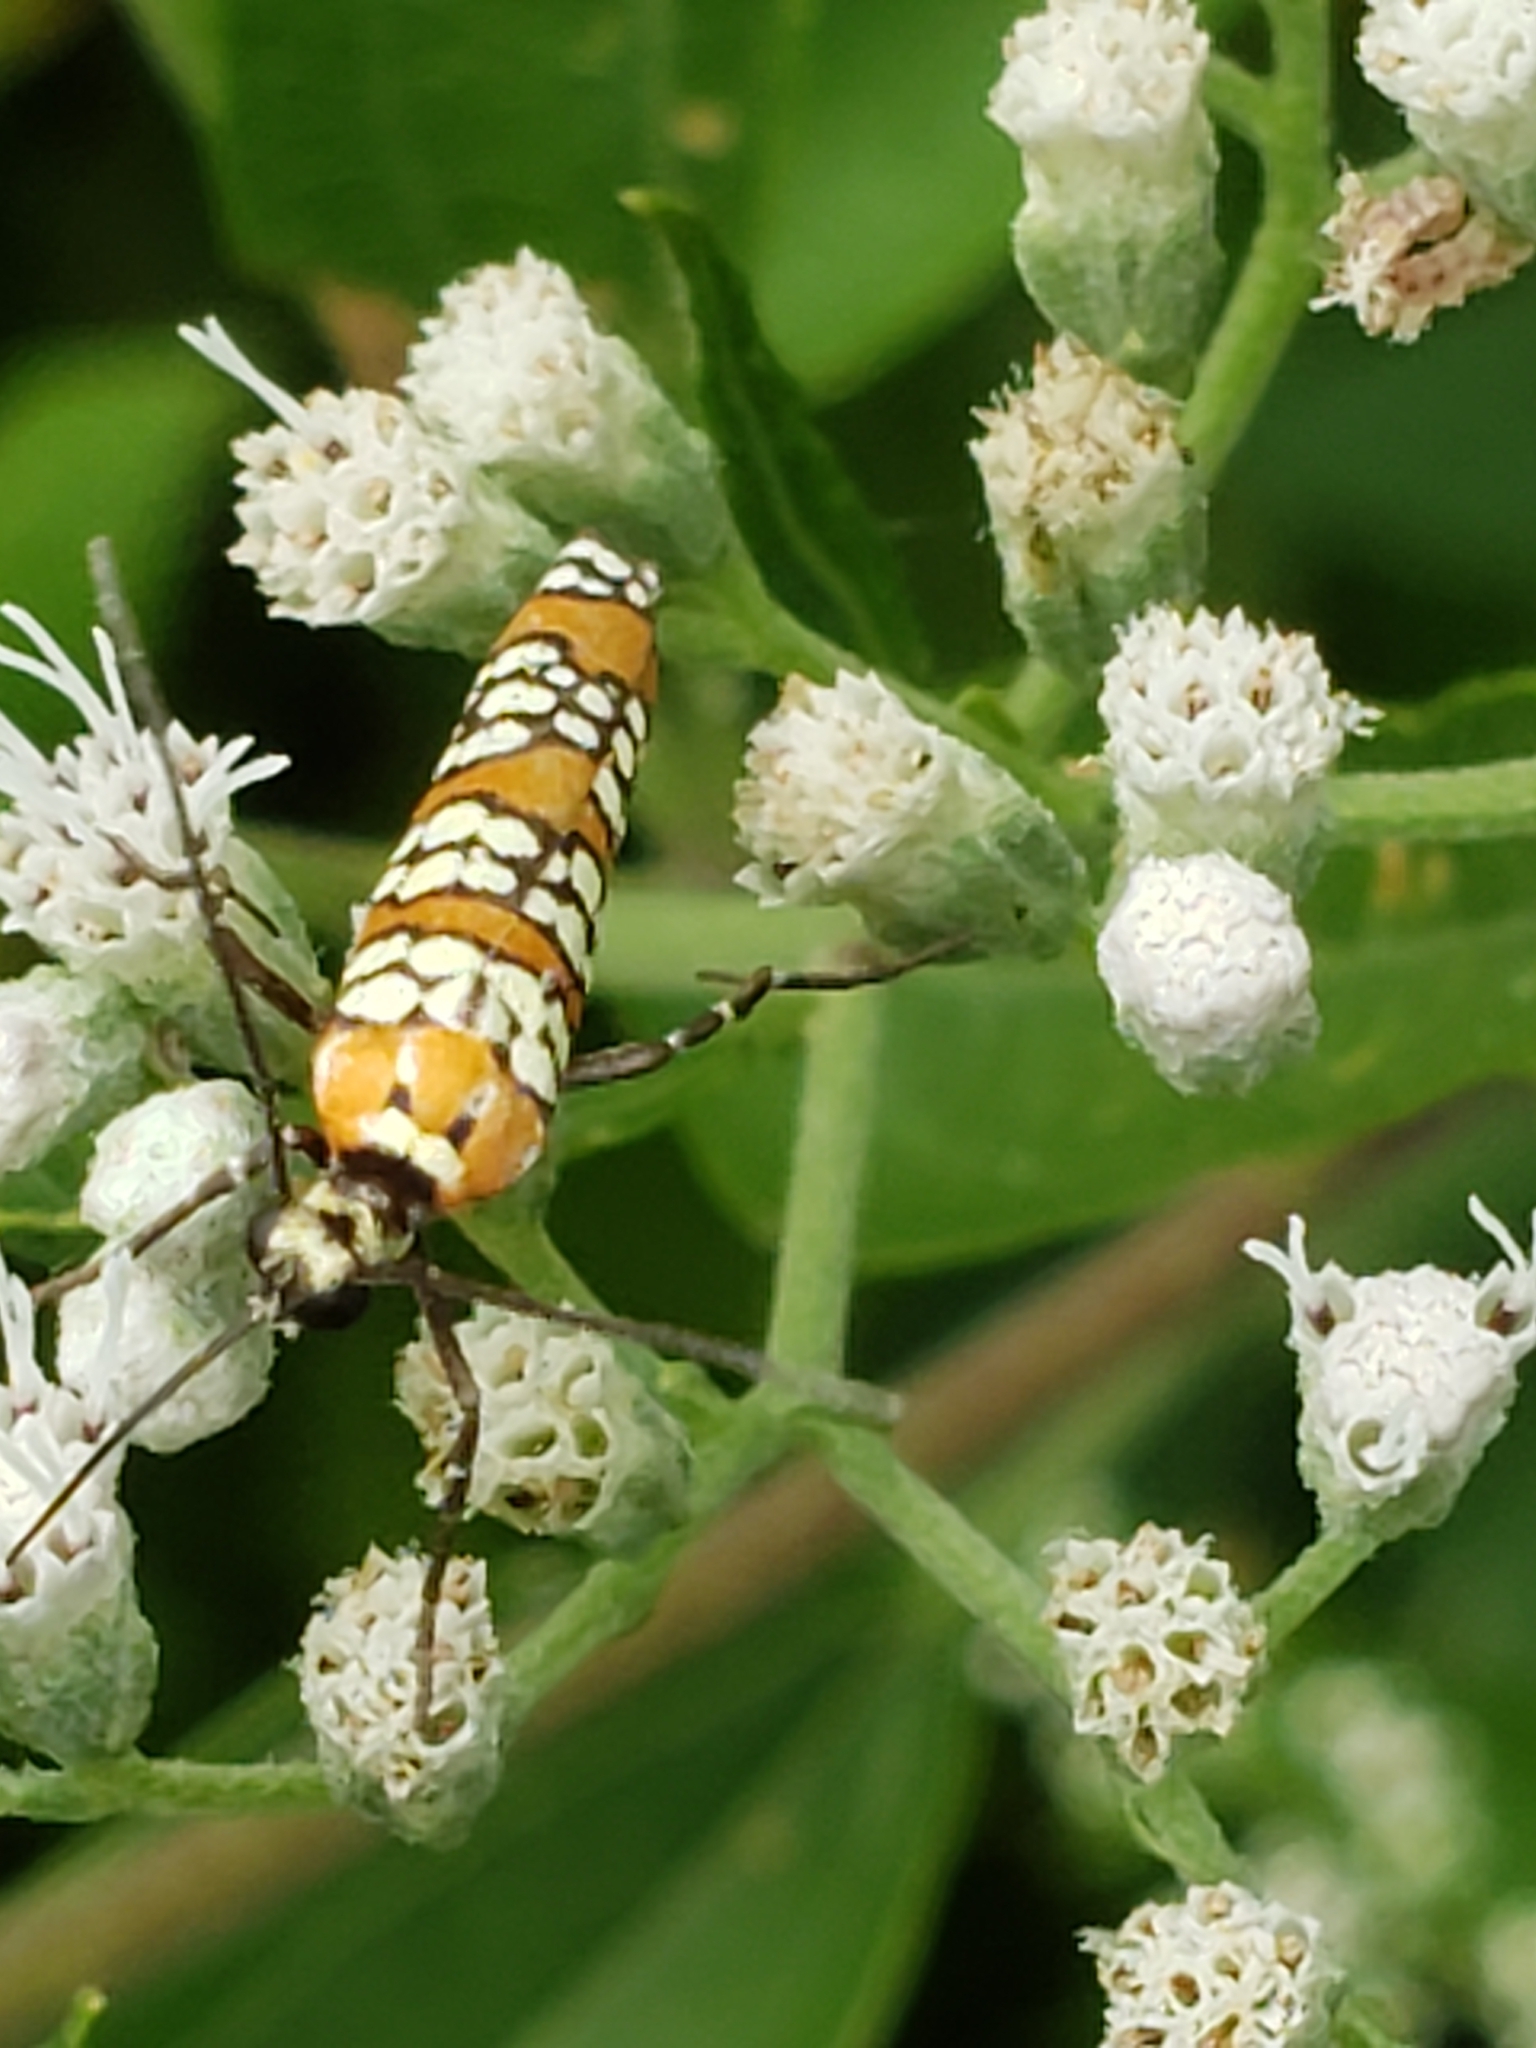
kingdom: Animalia
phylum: Arthropoda
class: Insecta
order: Lepidoptera
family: Attevidae
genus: Atteva
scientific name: Atteva punctella
